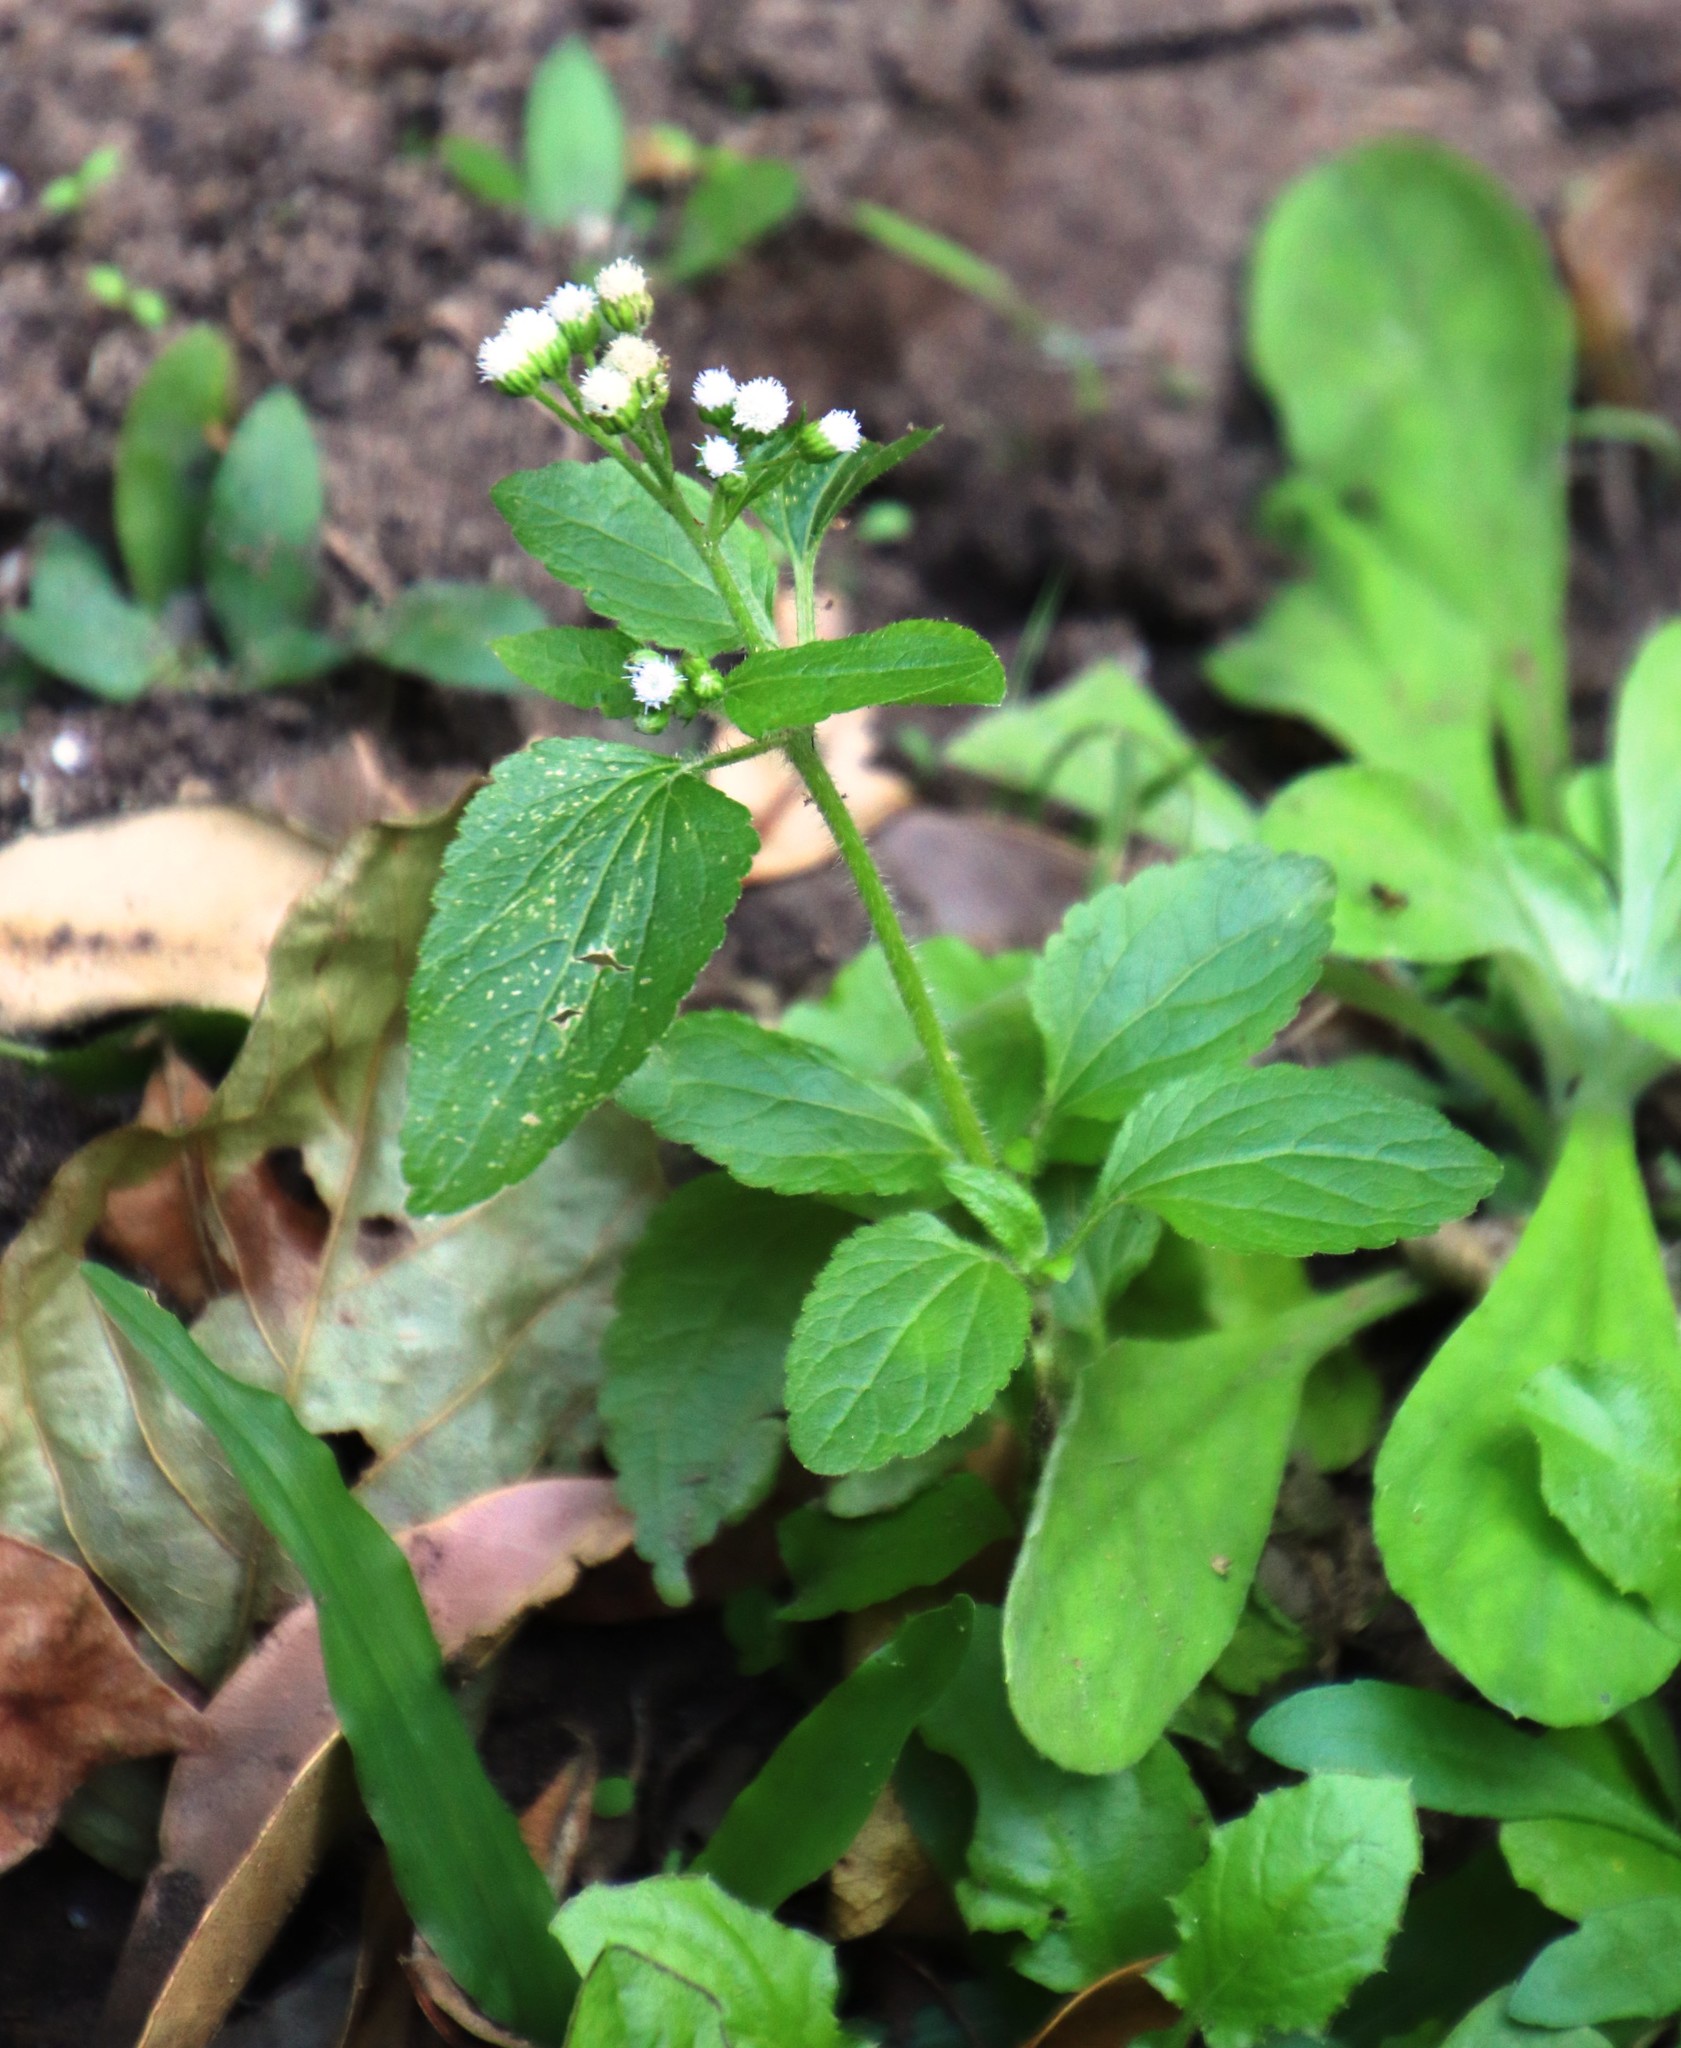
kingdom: Plantae
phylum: Tracheophyta
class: Magnoliopsida
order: Asterales
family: Asteraceae
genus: Ageratum
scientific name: Ageratum conyzoides
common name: Tropical whiteweed
